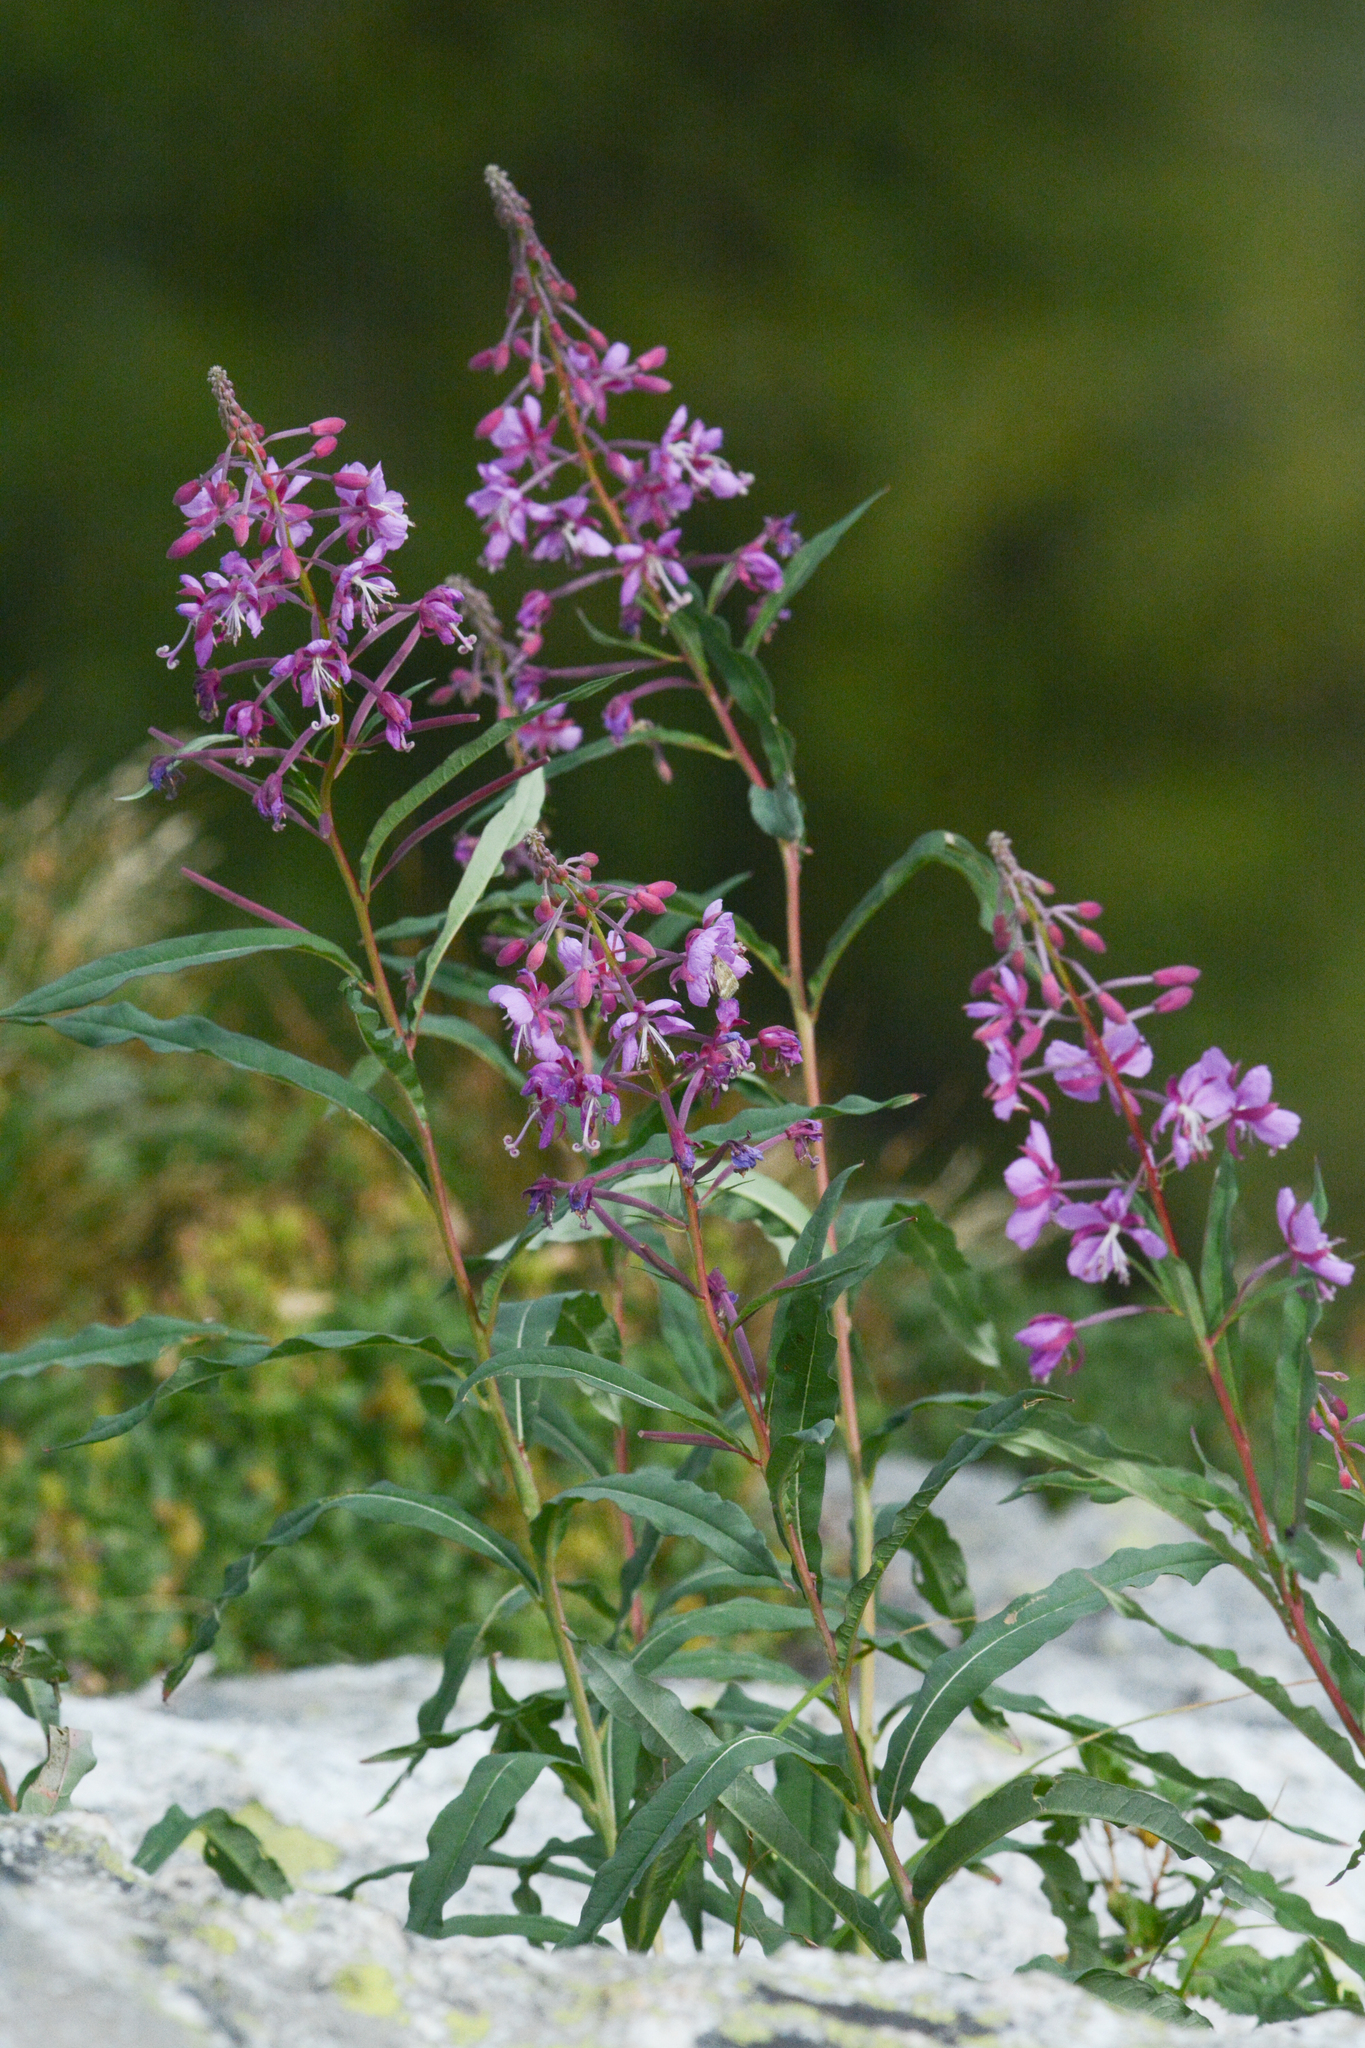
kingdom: Plantae
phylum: Tracheophyta
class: Magnoliopsida
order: Myrtales
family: Onagraceae
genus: Chamaenerion
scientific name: Chamaenerion angustifolium
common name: Fireweed
